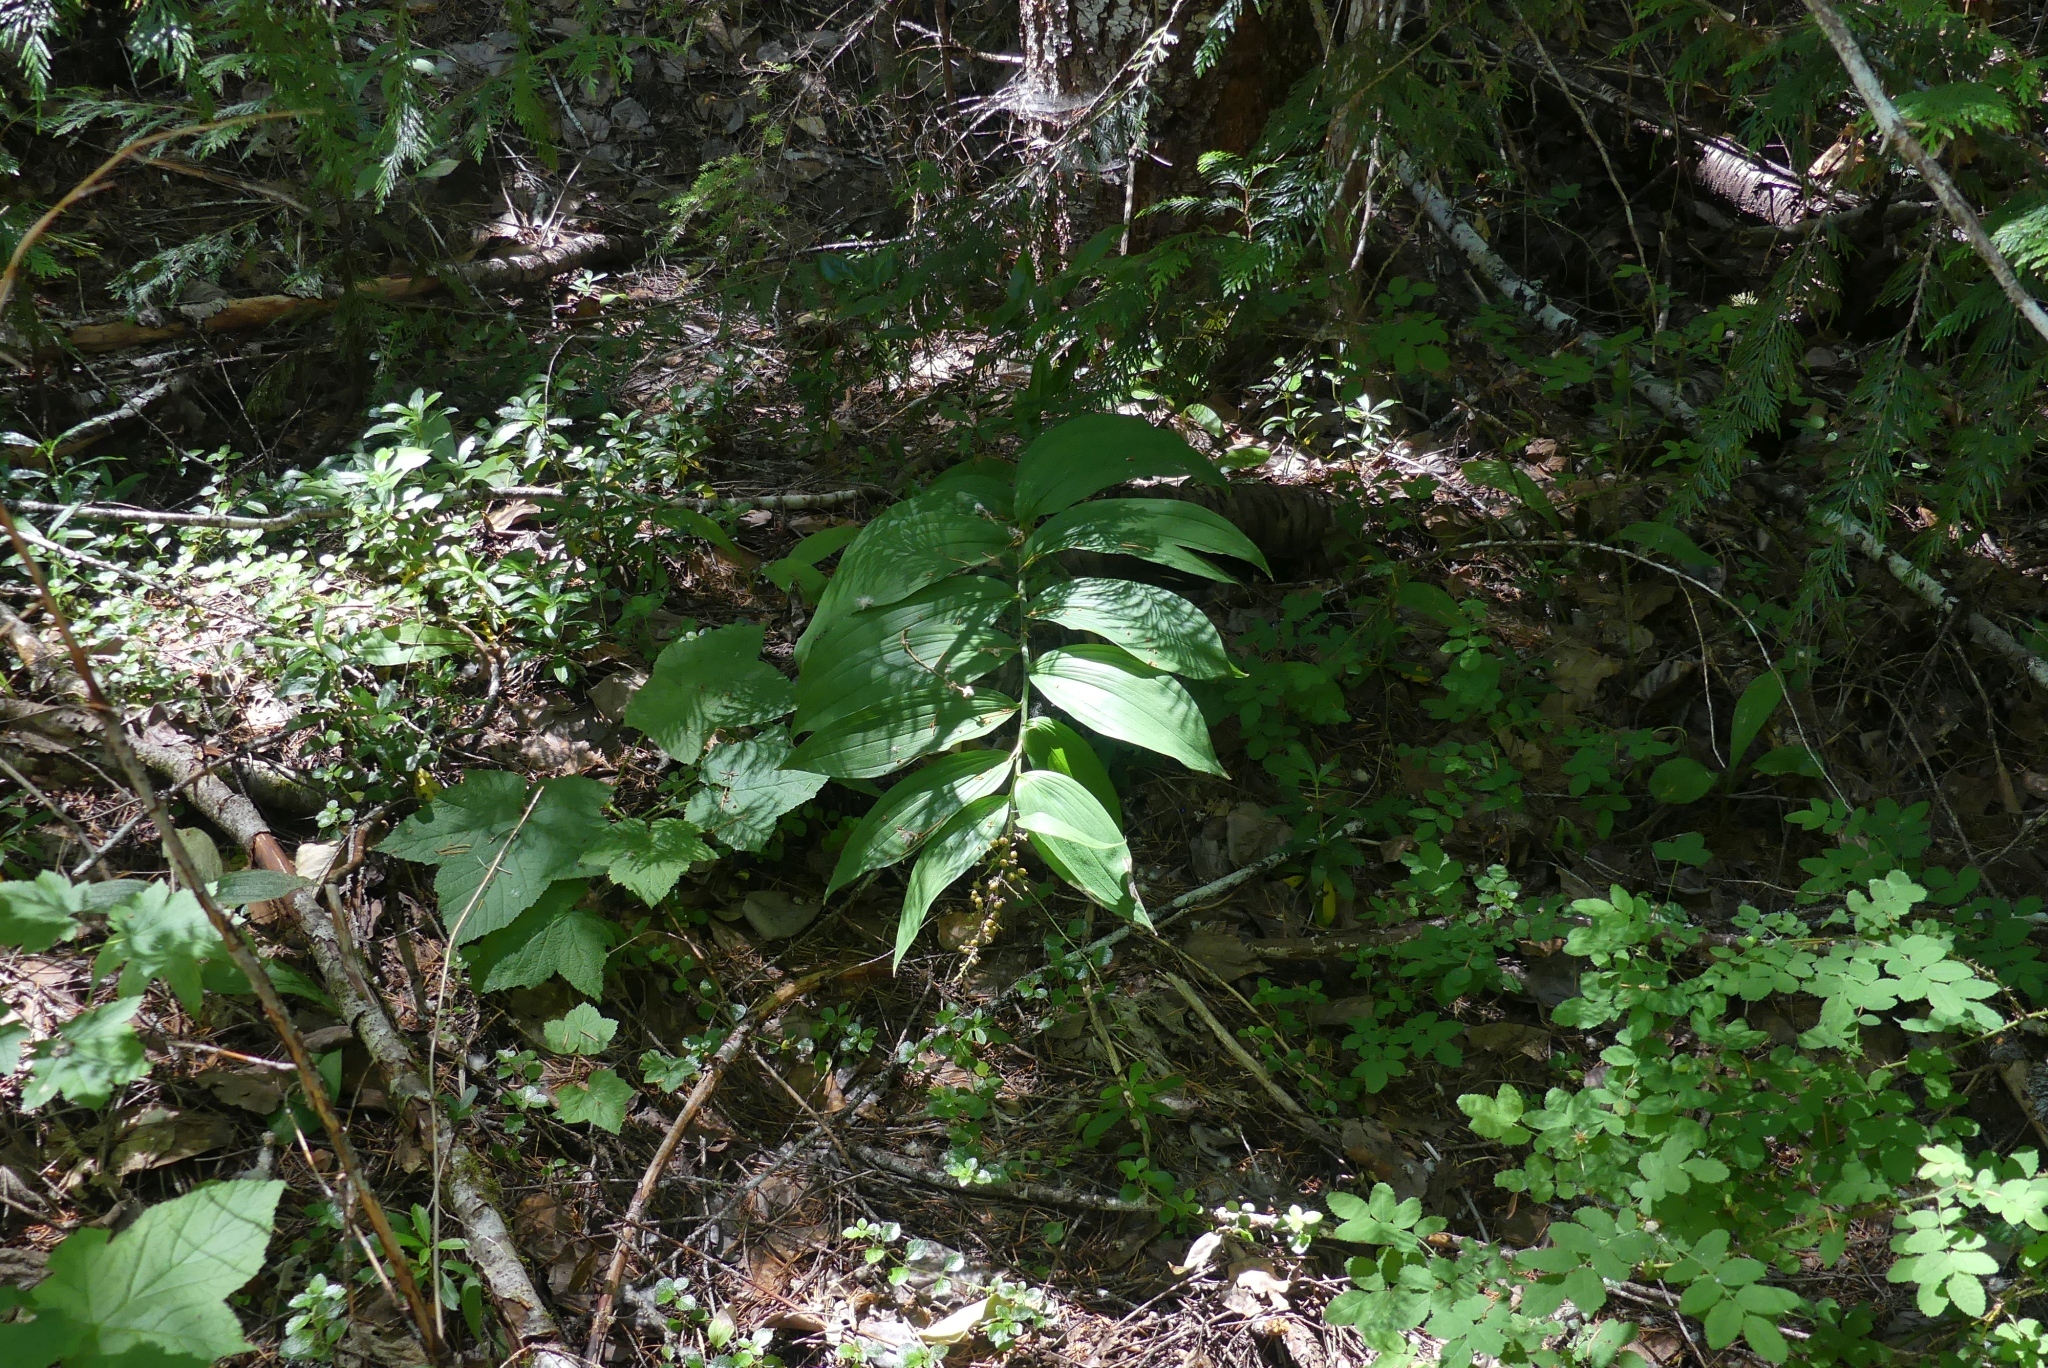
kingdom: Plantae
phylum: Tracheophyta
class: Liliopsida
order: Asparagales
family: Asparagaceae
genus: Maianthemum
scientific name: Maianthemum racemosum
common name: False spikenard
